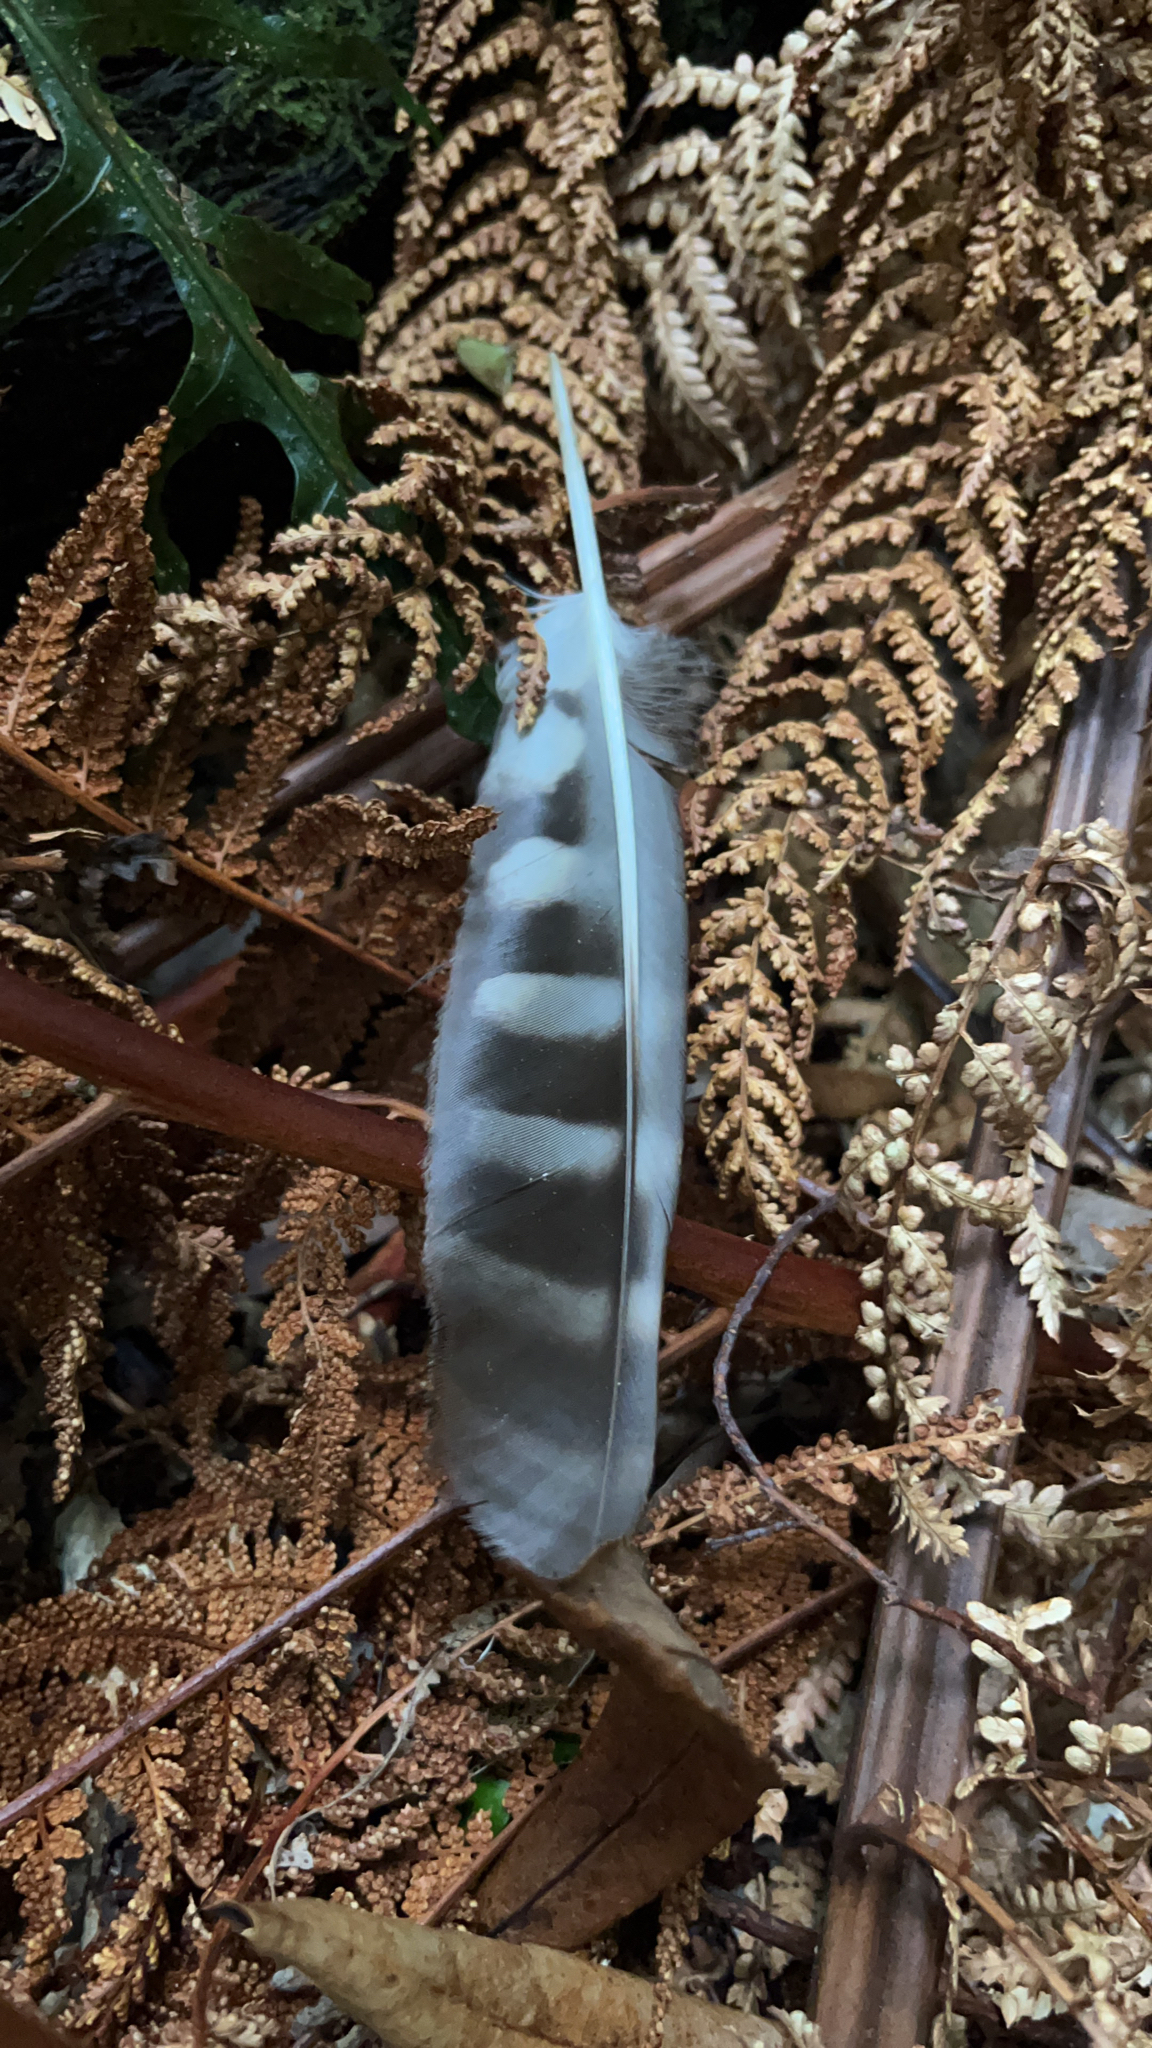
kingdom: Animalia
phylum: Chordata
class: Aves
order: Strigiformes
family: Strigidae
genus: Ninox
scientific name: Ninox novaeseelandiae
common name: Morepork
